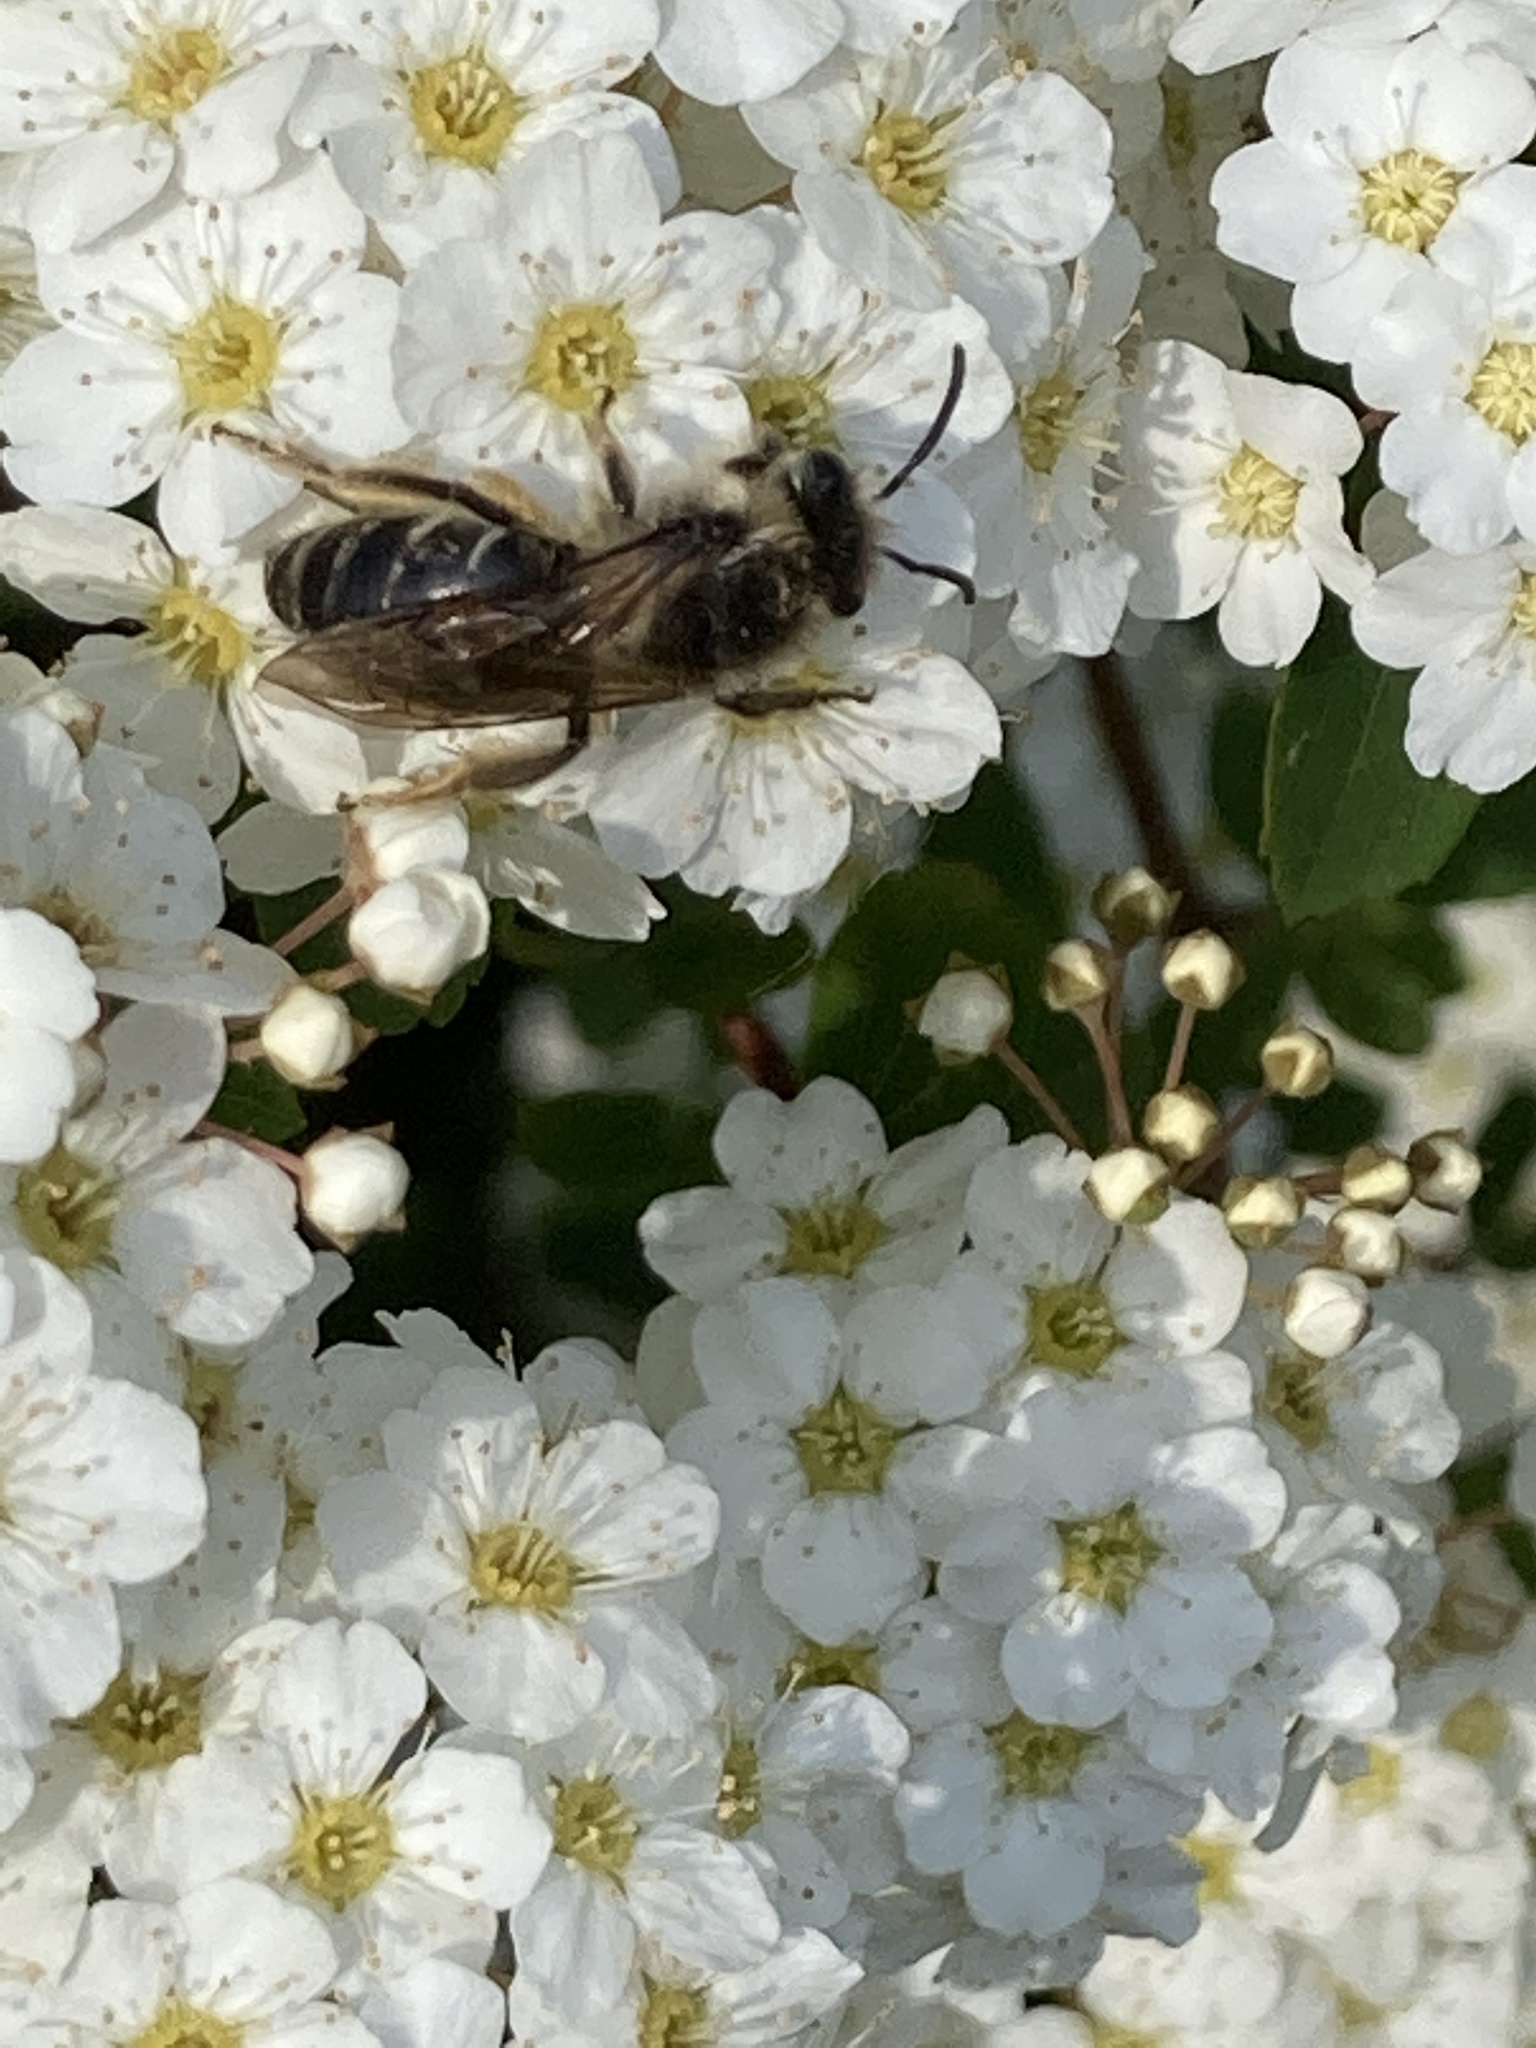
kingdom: Animalia
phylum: Arthropoda
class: Insecta
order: Hymenoptera
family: Colletidae
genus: Colletes
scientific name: Colletes inaequalis
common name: Unequal cellophane bee
